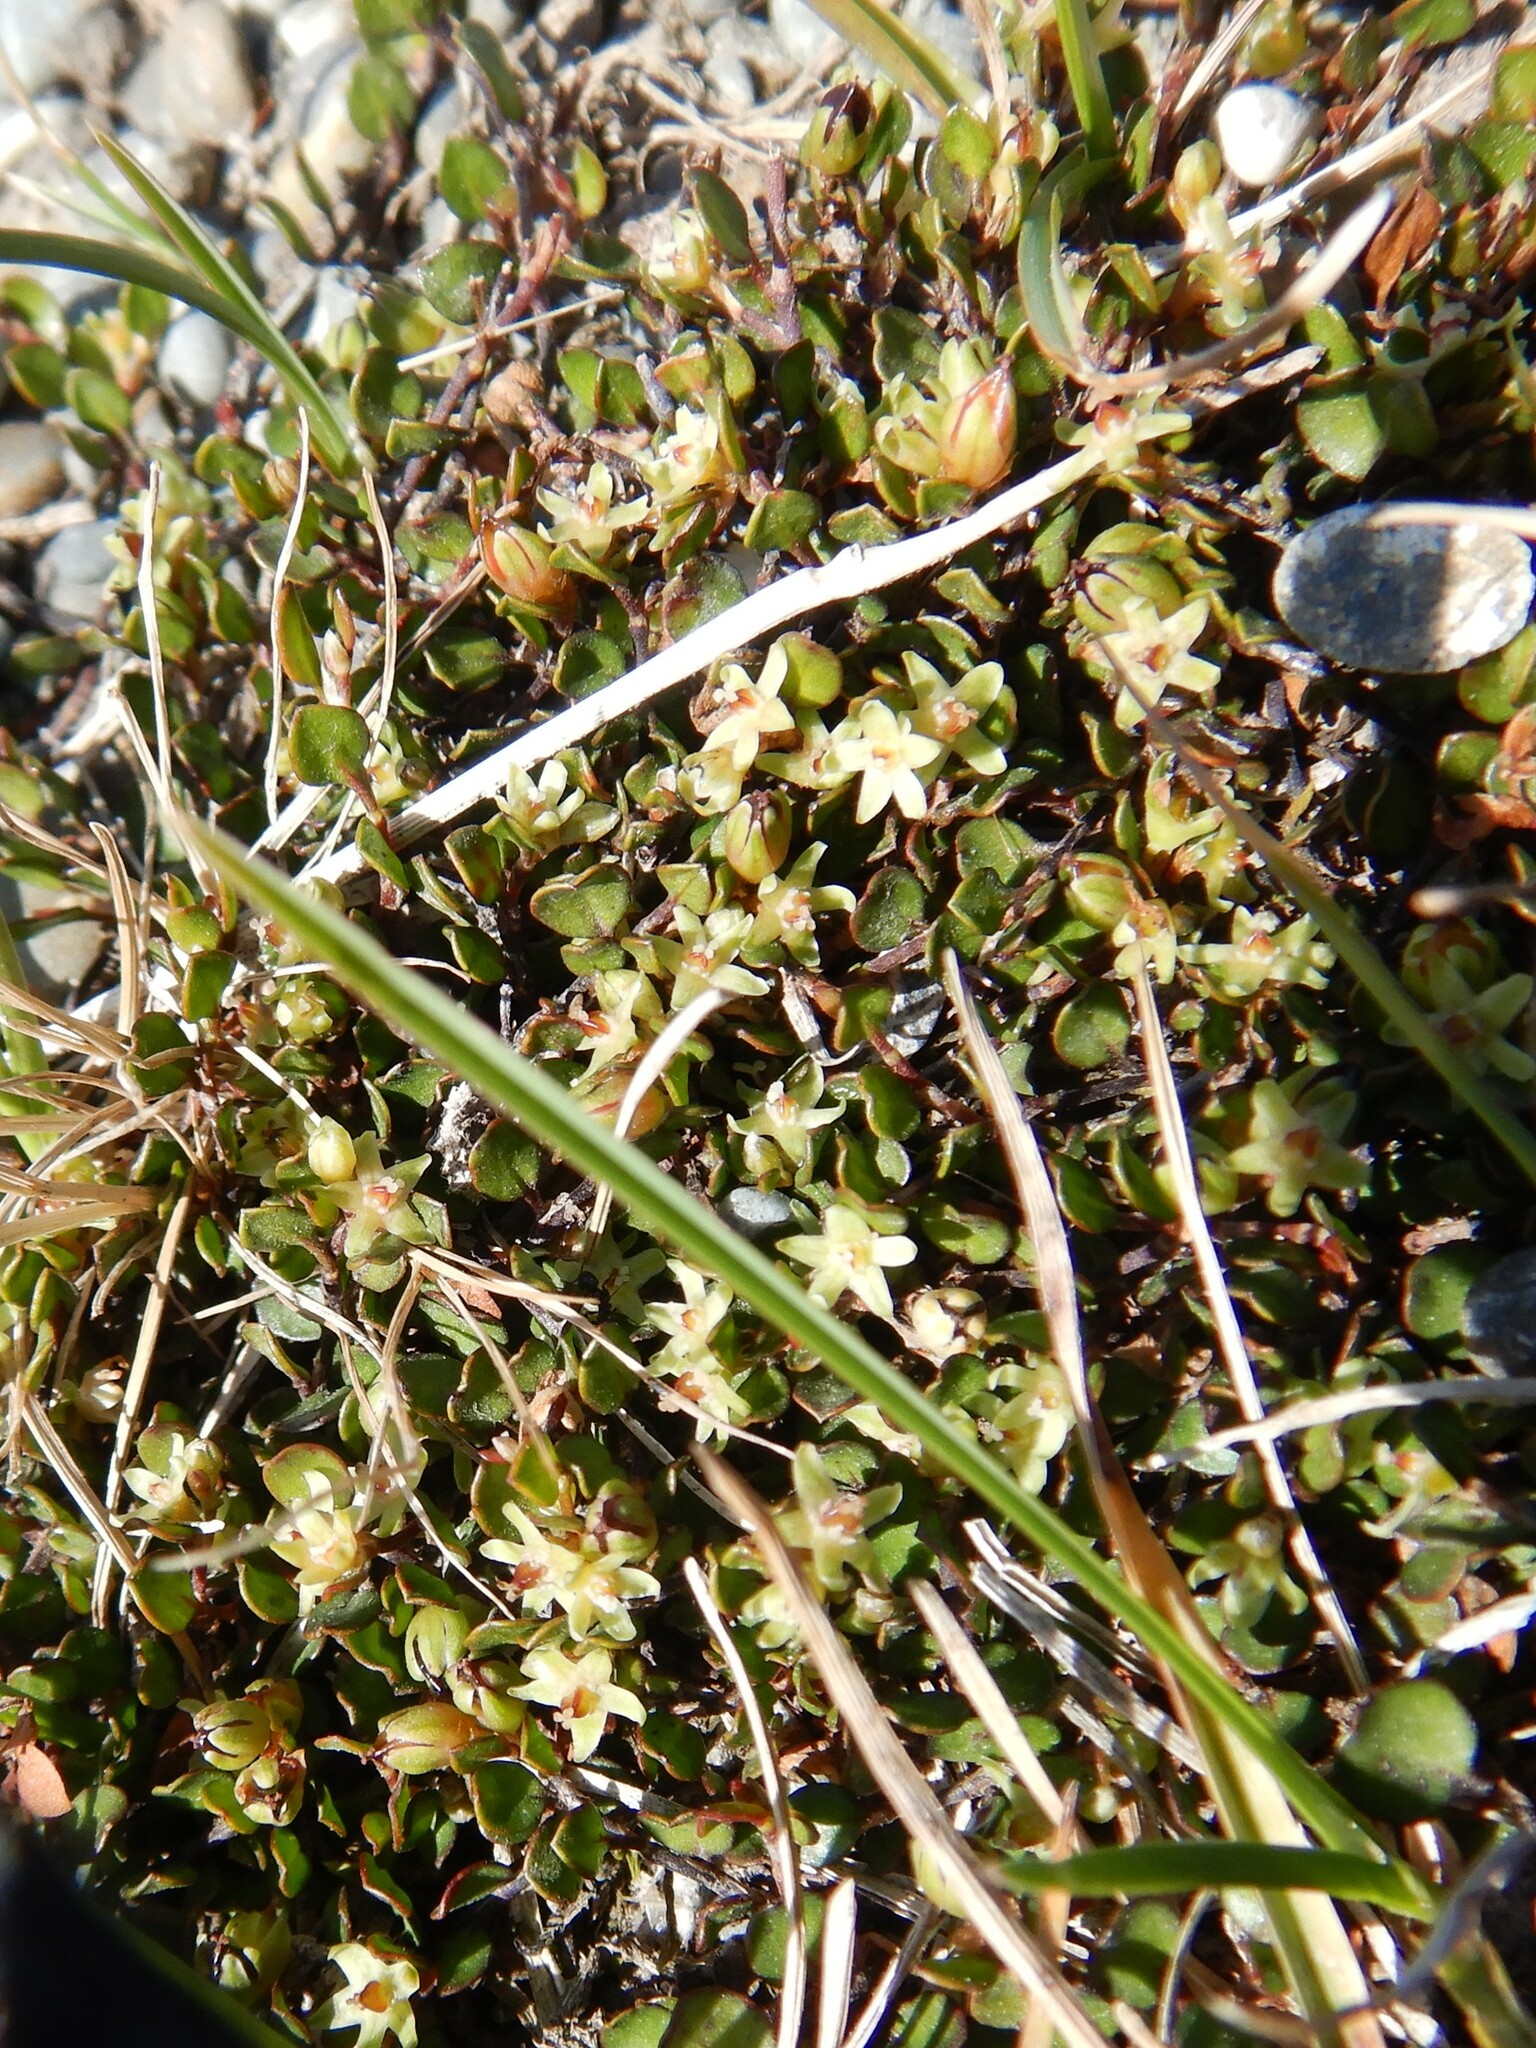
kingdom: Plantae
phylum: Tracheophyta
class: Magnoliopsida
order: Caryophyllales
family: Polygonaceae
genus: Muehlenbeckia
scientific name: Muehlenbeckia axillaris
